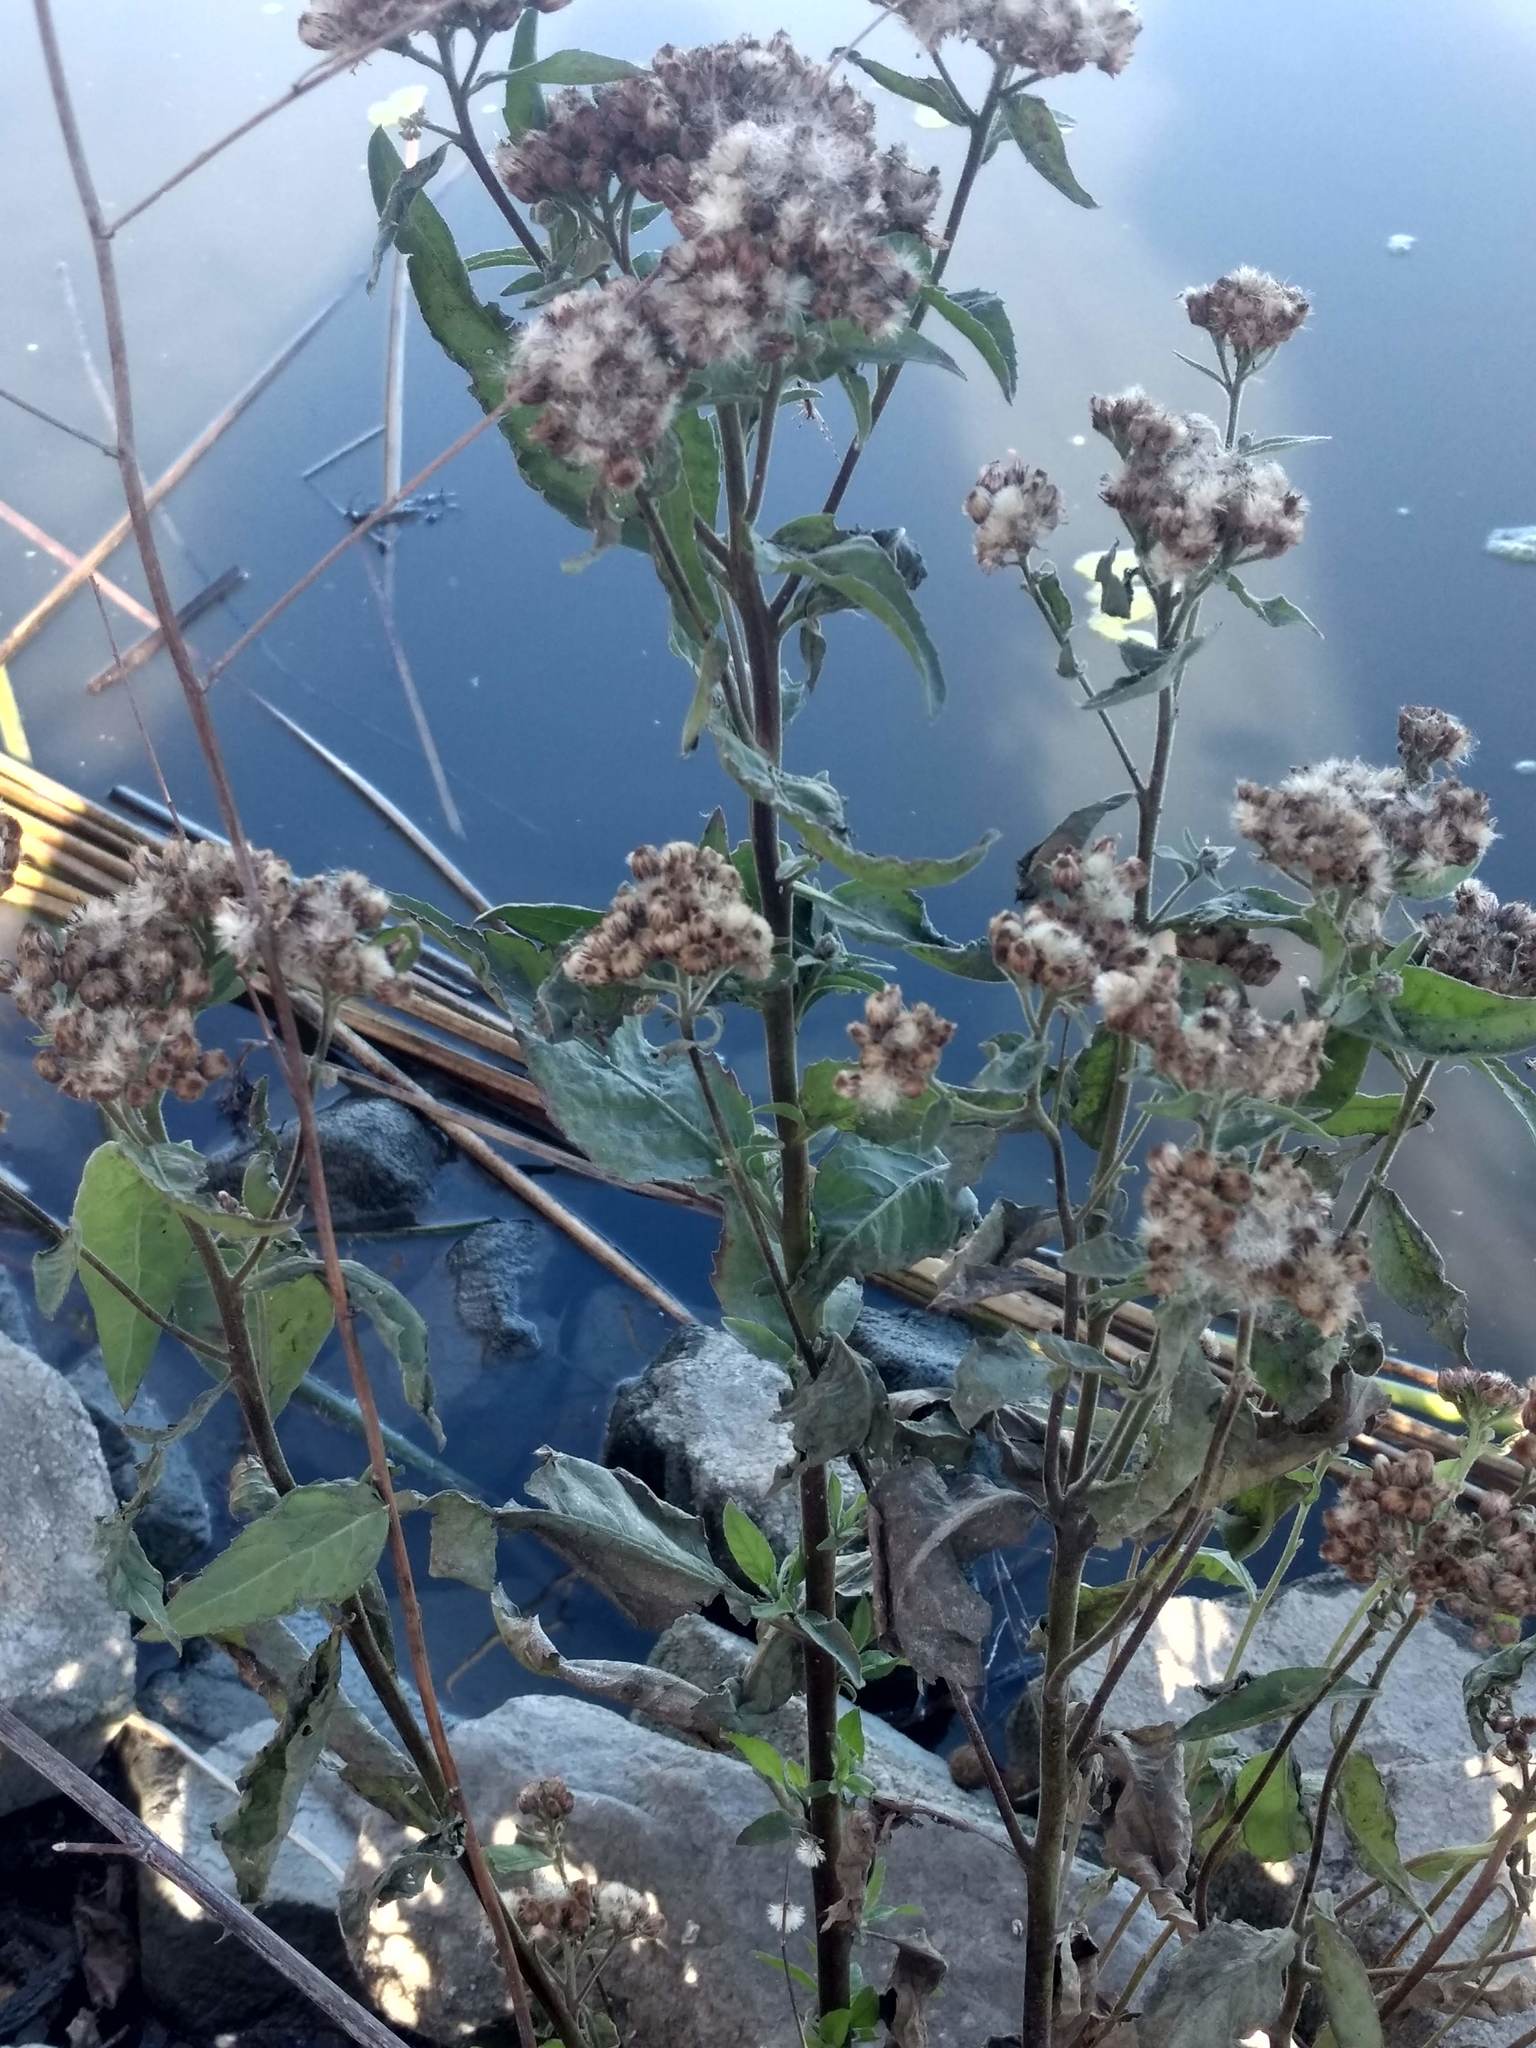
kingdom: Plantae
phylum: Tracheophyta
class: Magnoliopsida
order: Asterales
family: Asteraceae
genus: Pluchea
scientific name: Pluchea odorata
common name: Saltmarsh fleabane
